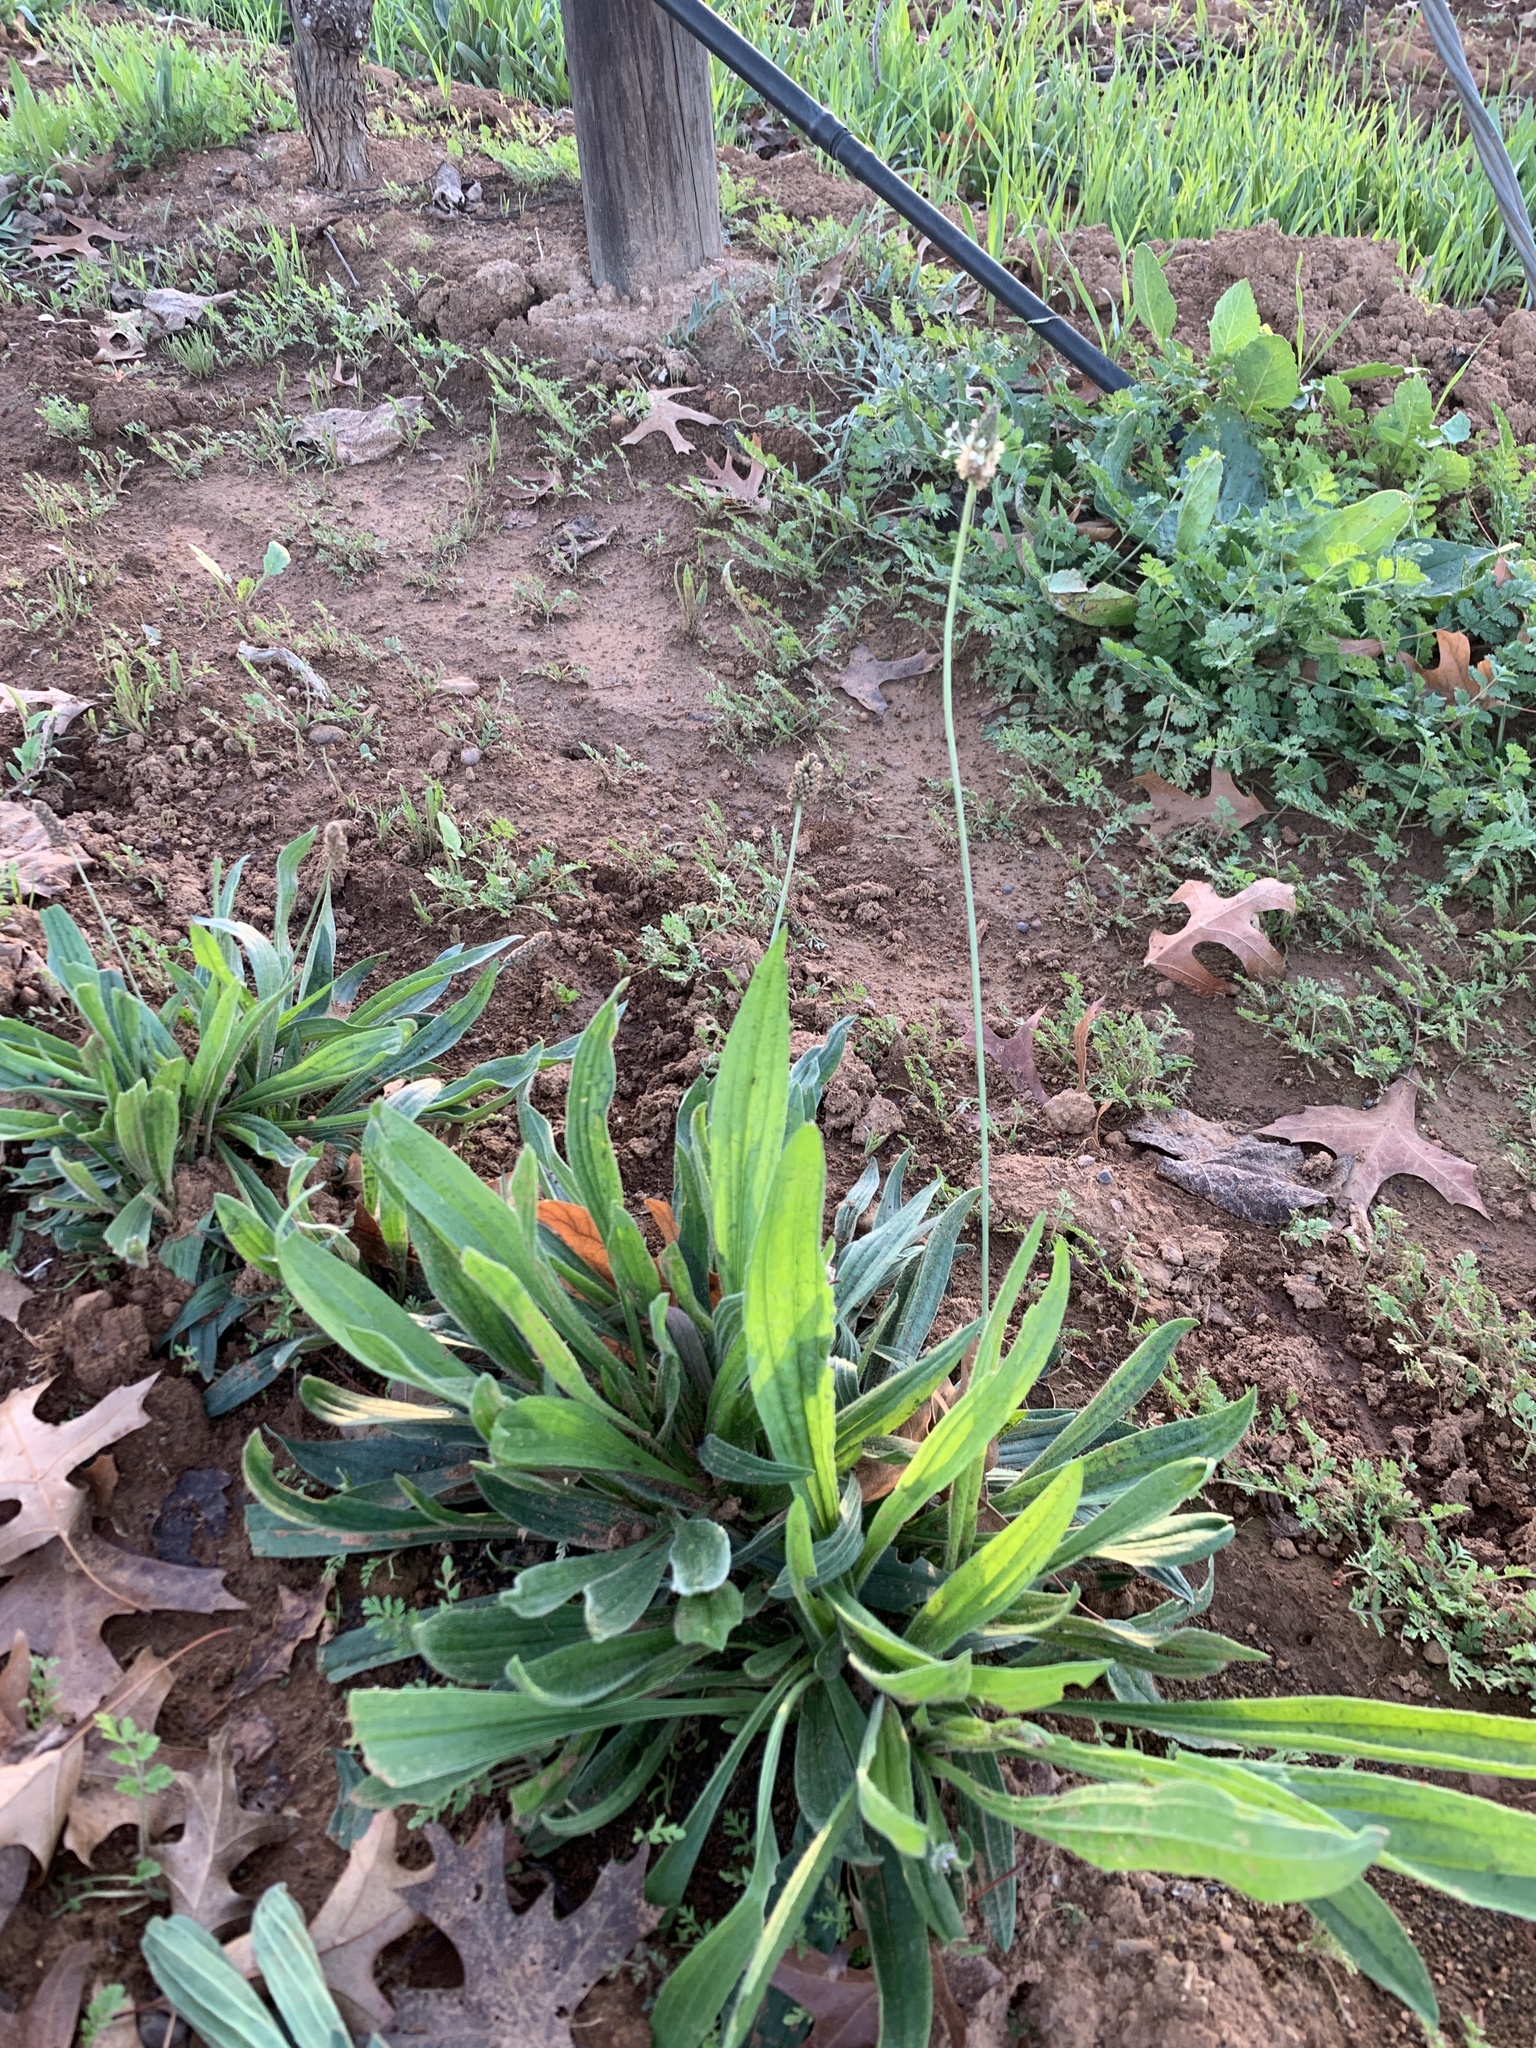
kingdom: Plantae
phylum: Tracheophyta
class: Magnoliopsida
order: Lamiales
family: Plantaginaceae
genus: Plantago
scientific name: Plantago lanceolata
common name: Ribwort plantain
